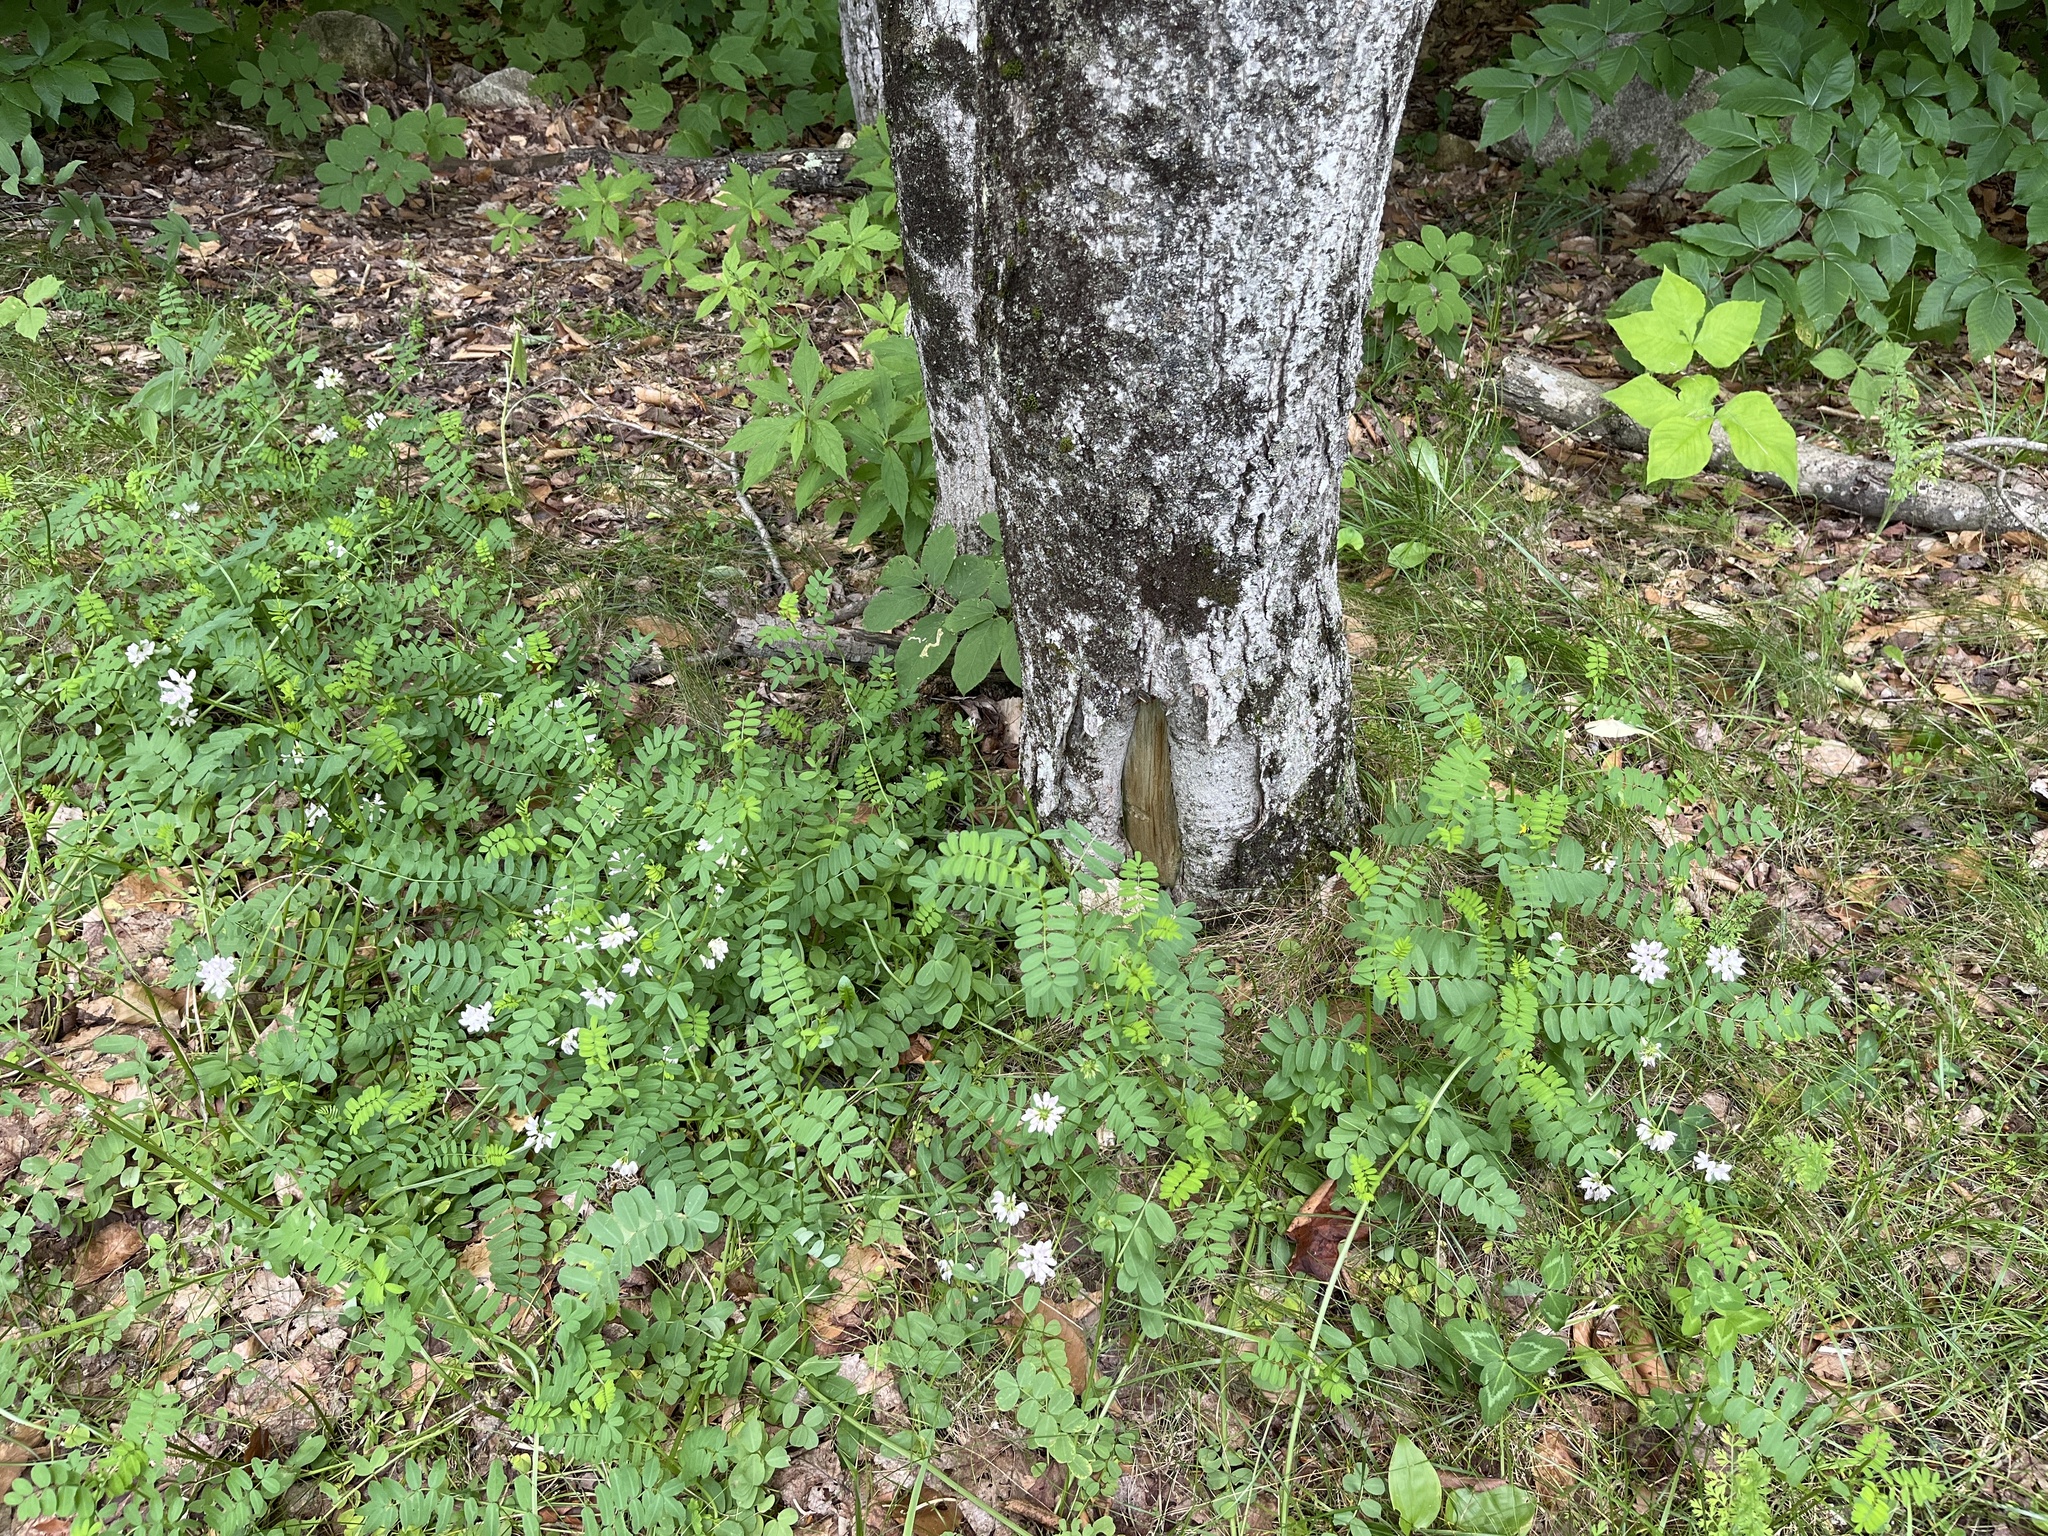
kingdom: Plantae
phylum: Tracheophyta
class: Magnoliopsida
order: Fabales
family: Fabaceae
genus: Coronilla
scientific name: Coronilla varia
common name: Crownvetch
